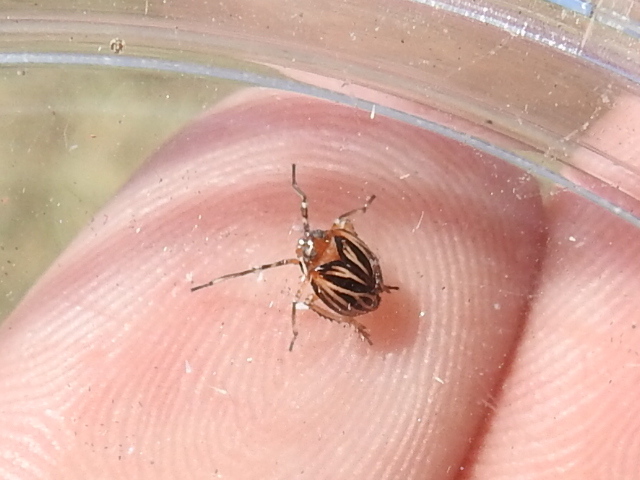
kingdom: Animalia
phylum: Arthropoda
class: Insecta
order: Hemiptera
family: Achilidae
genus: Isodaemon
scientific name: Isodaemon orontes
